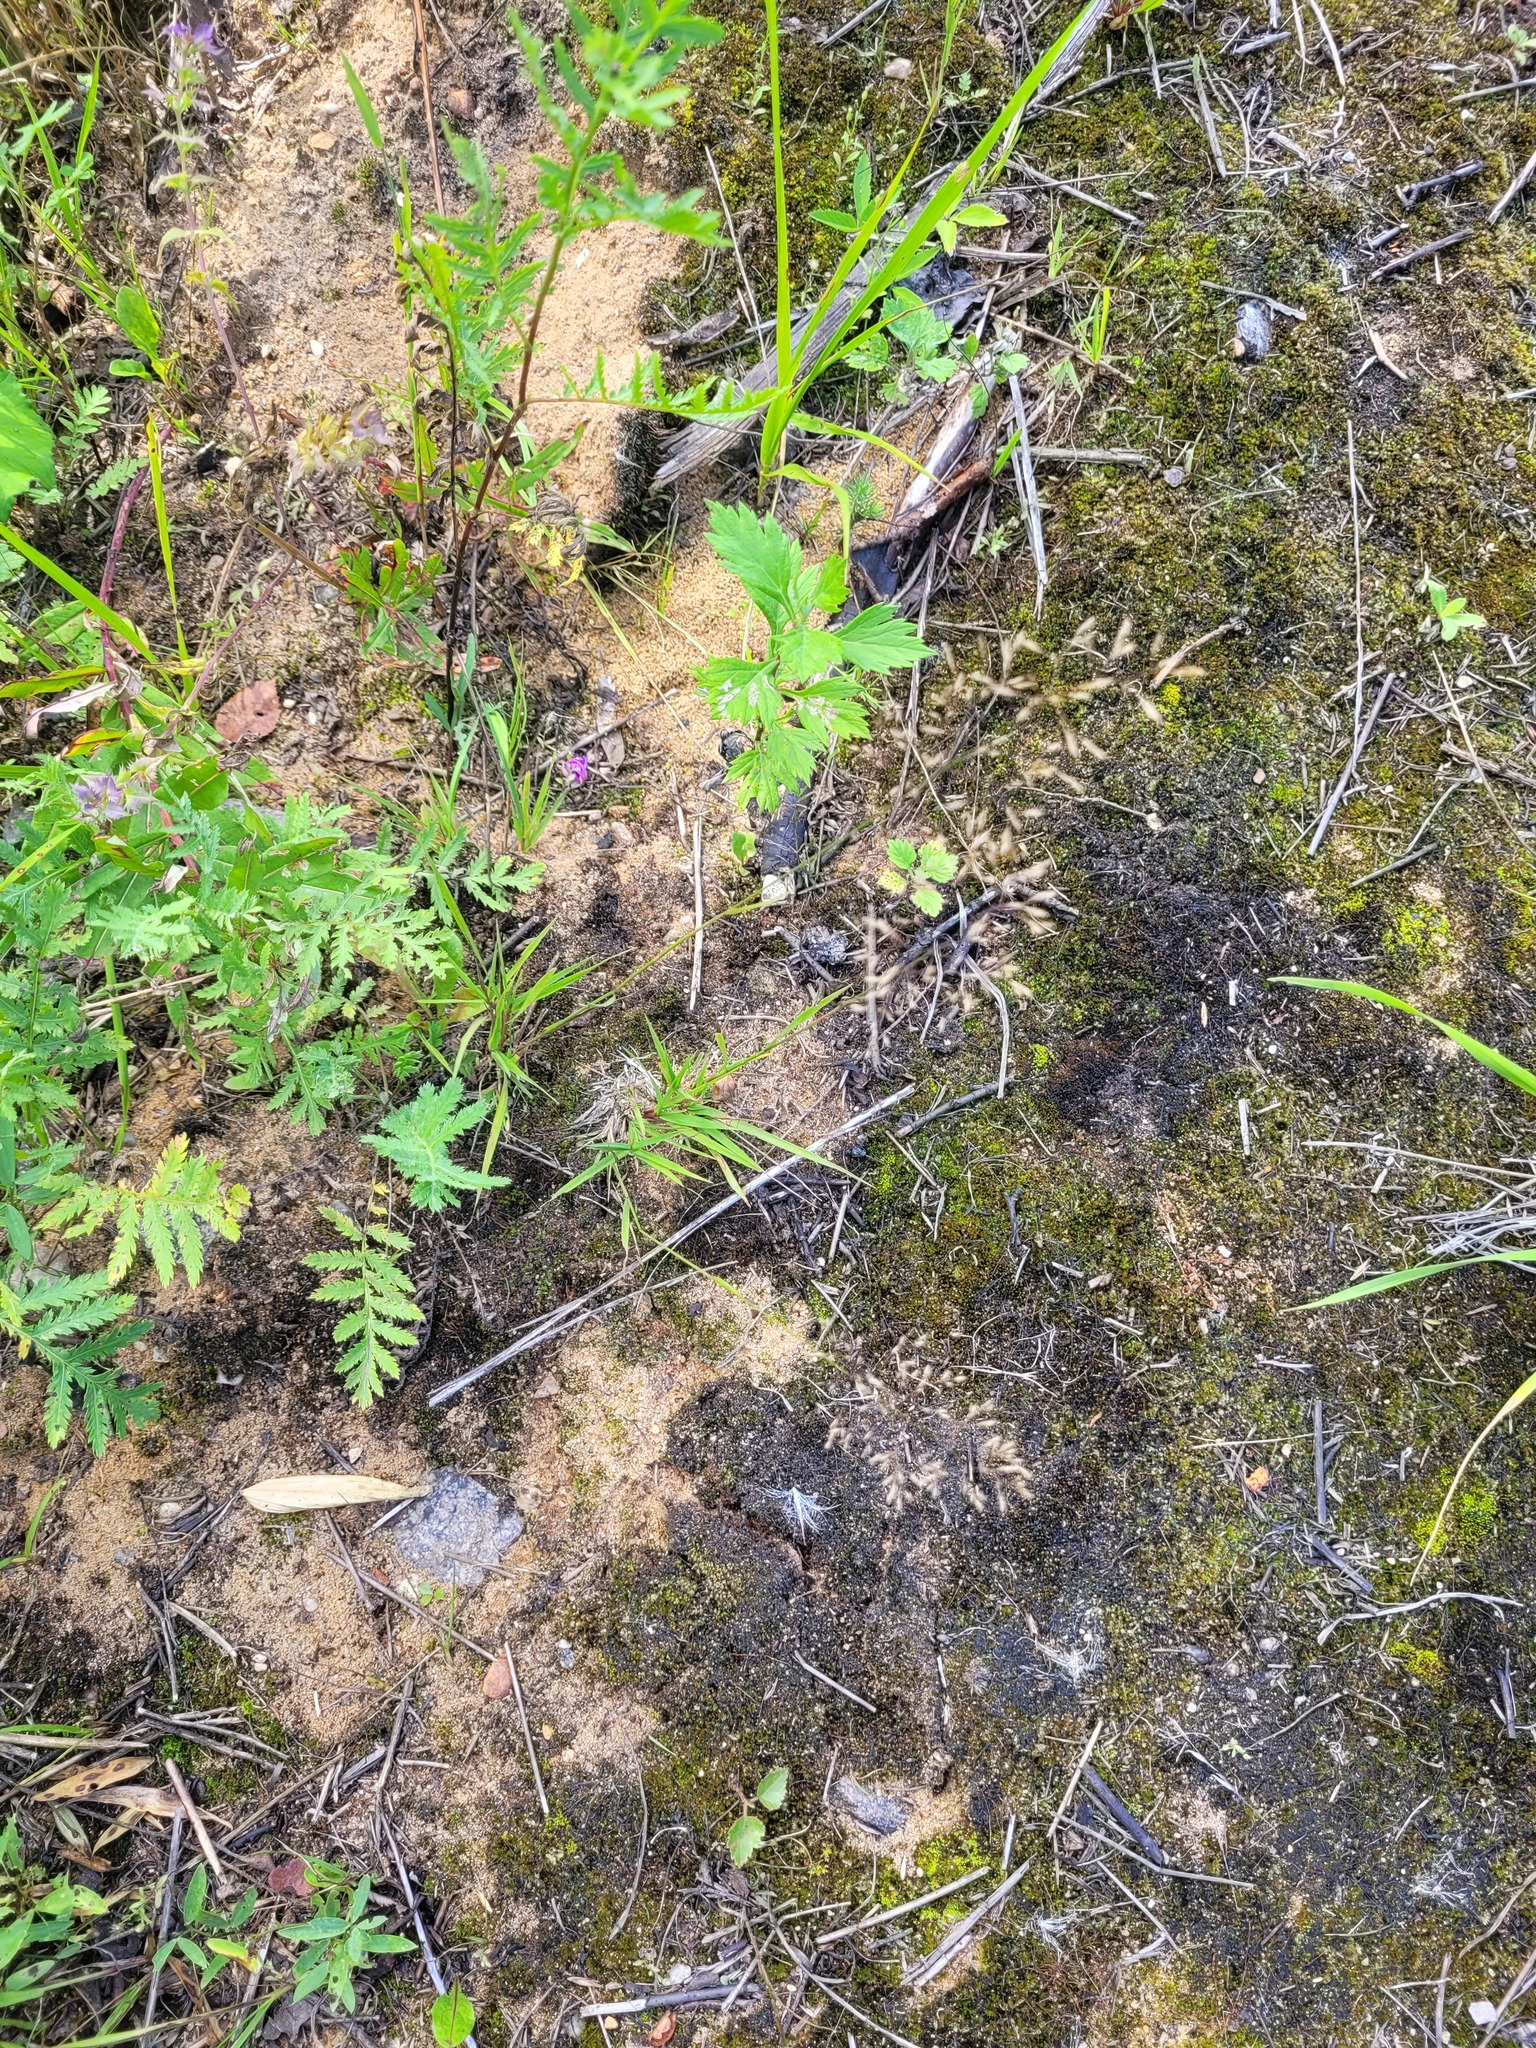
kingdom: Plantae
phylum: Tracheophyta
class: Liliopsida
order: Poales
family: Poaceae
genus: Agrostis
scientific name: Agrostis capillaris
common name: Colonial bentgrass
